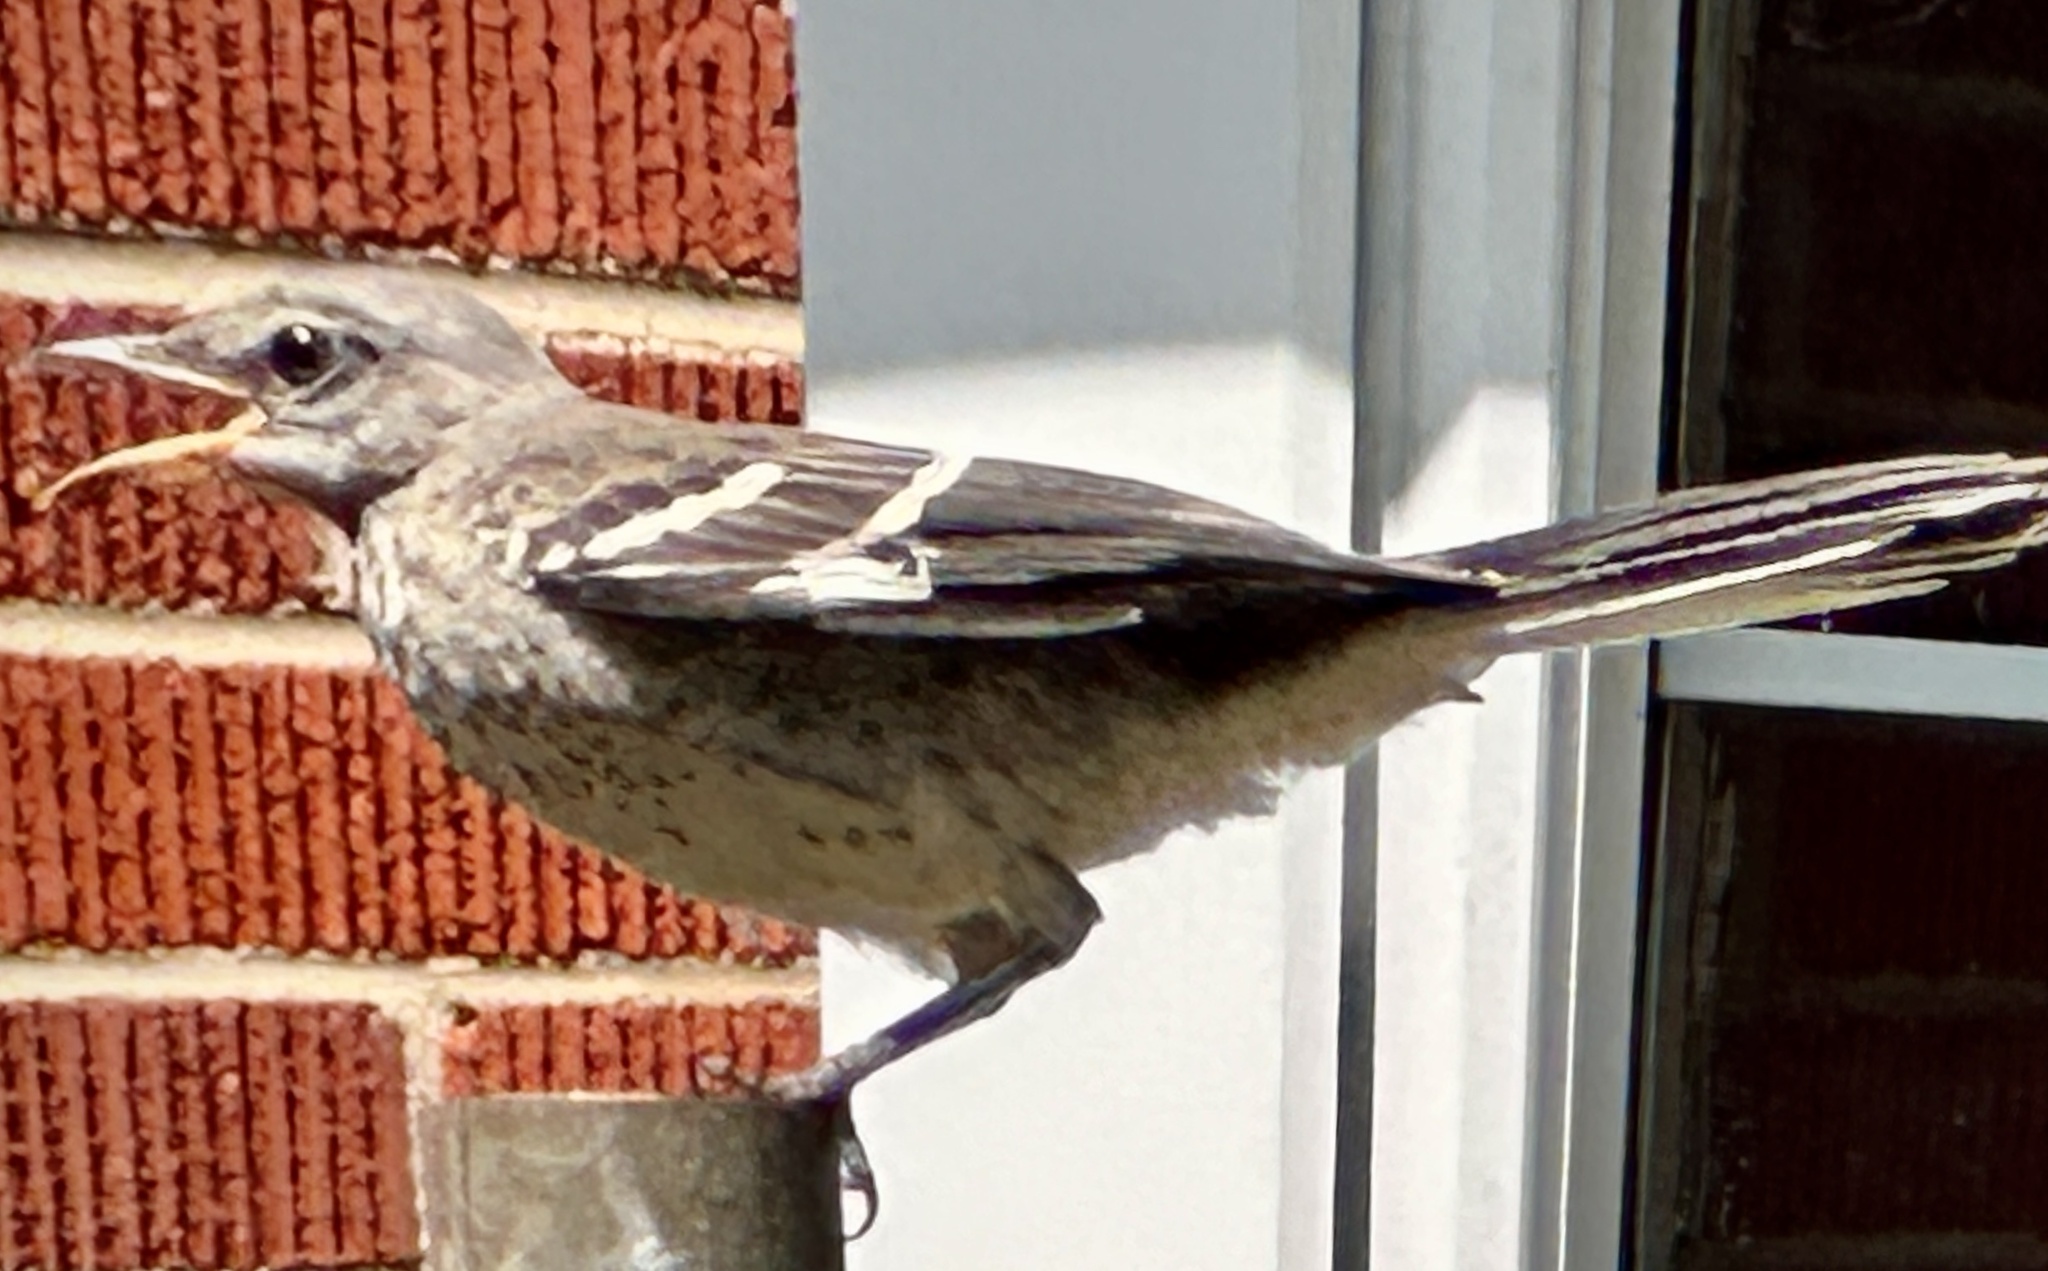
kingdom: Animalia
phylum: Chordata
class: Aves
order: Passeriformes
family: Mimidae
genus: Mimus
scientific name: Mimus polyglottos
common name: Northern mockingbird
